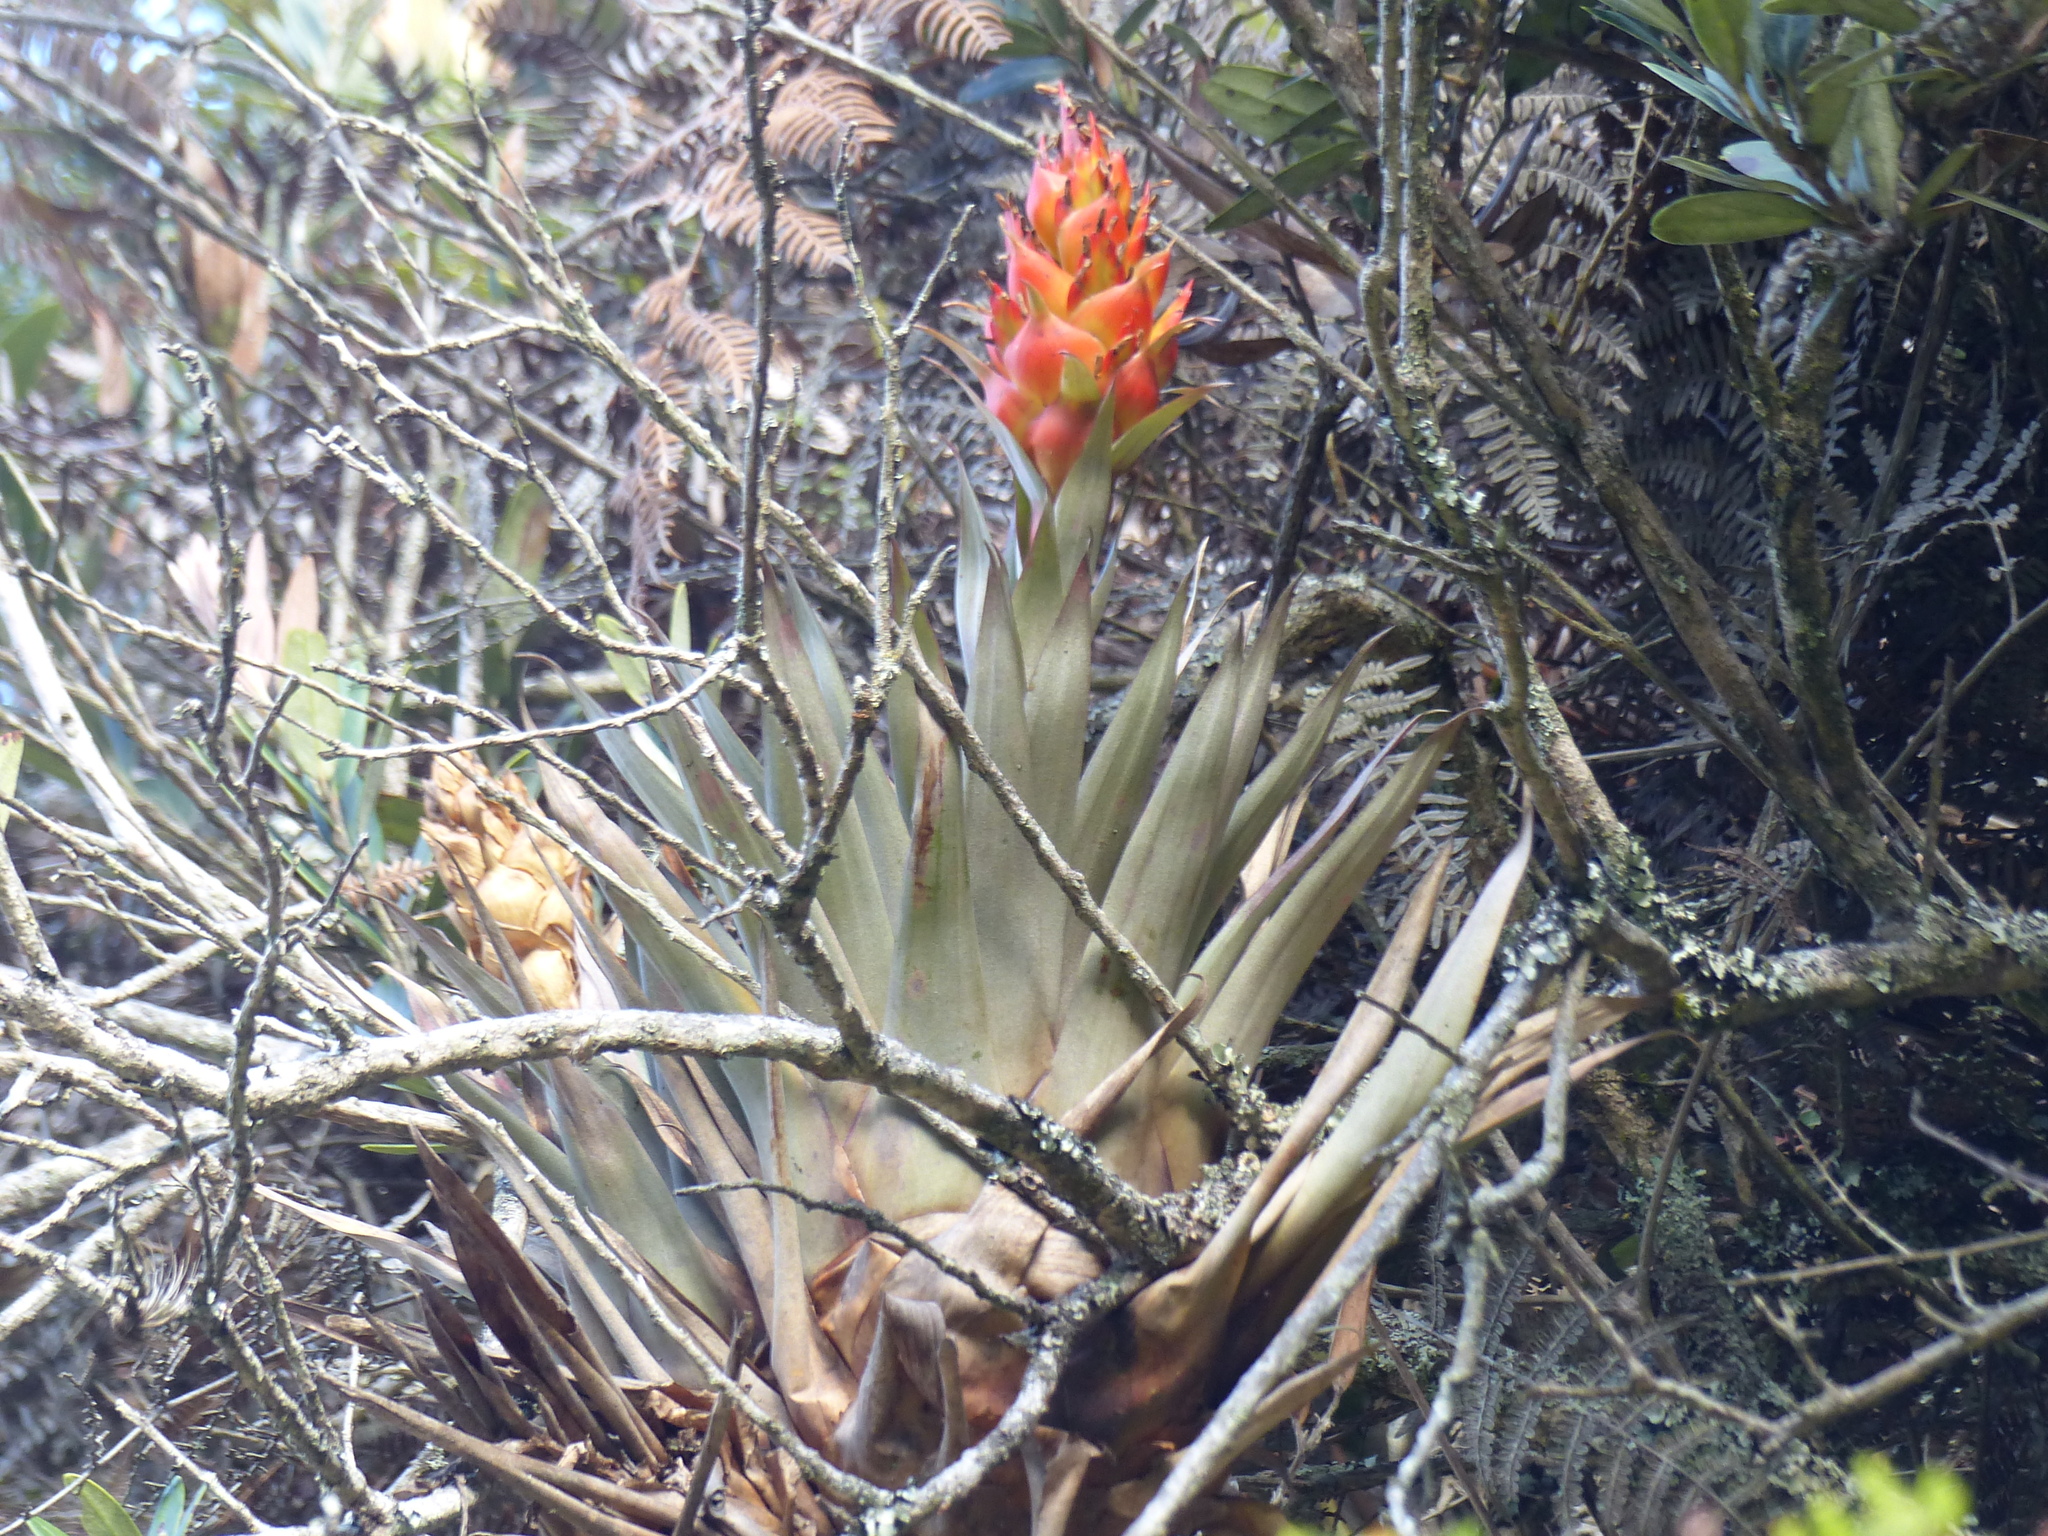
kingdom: Plantae
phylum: Tracheophyta
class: Liliopsida
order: Poales
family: Bromeliaceae
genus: Tillandsia
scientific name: Tillandsia turneri
